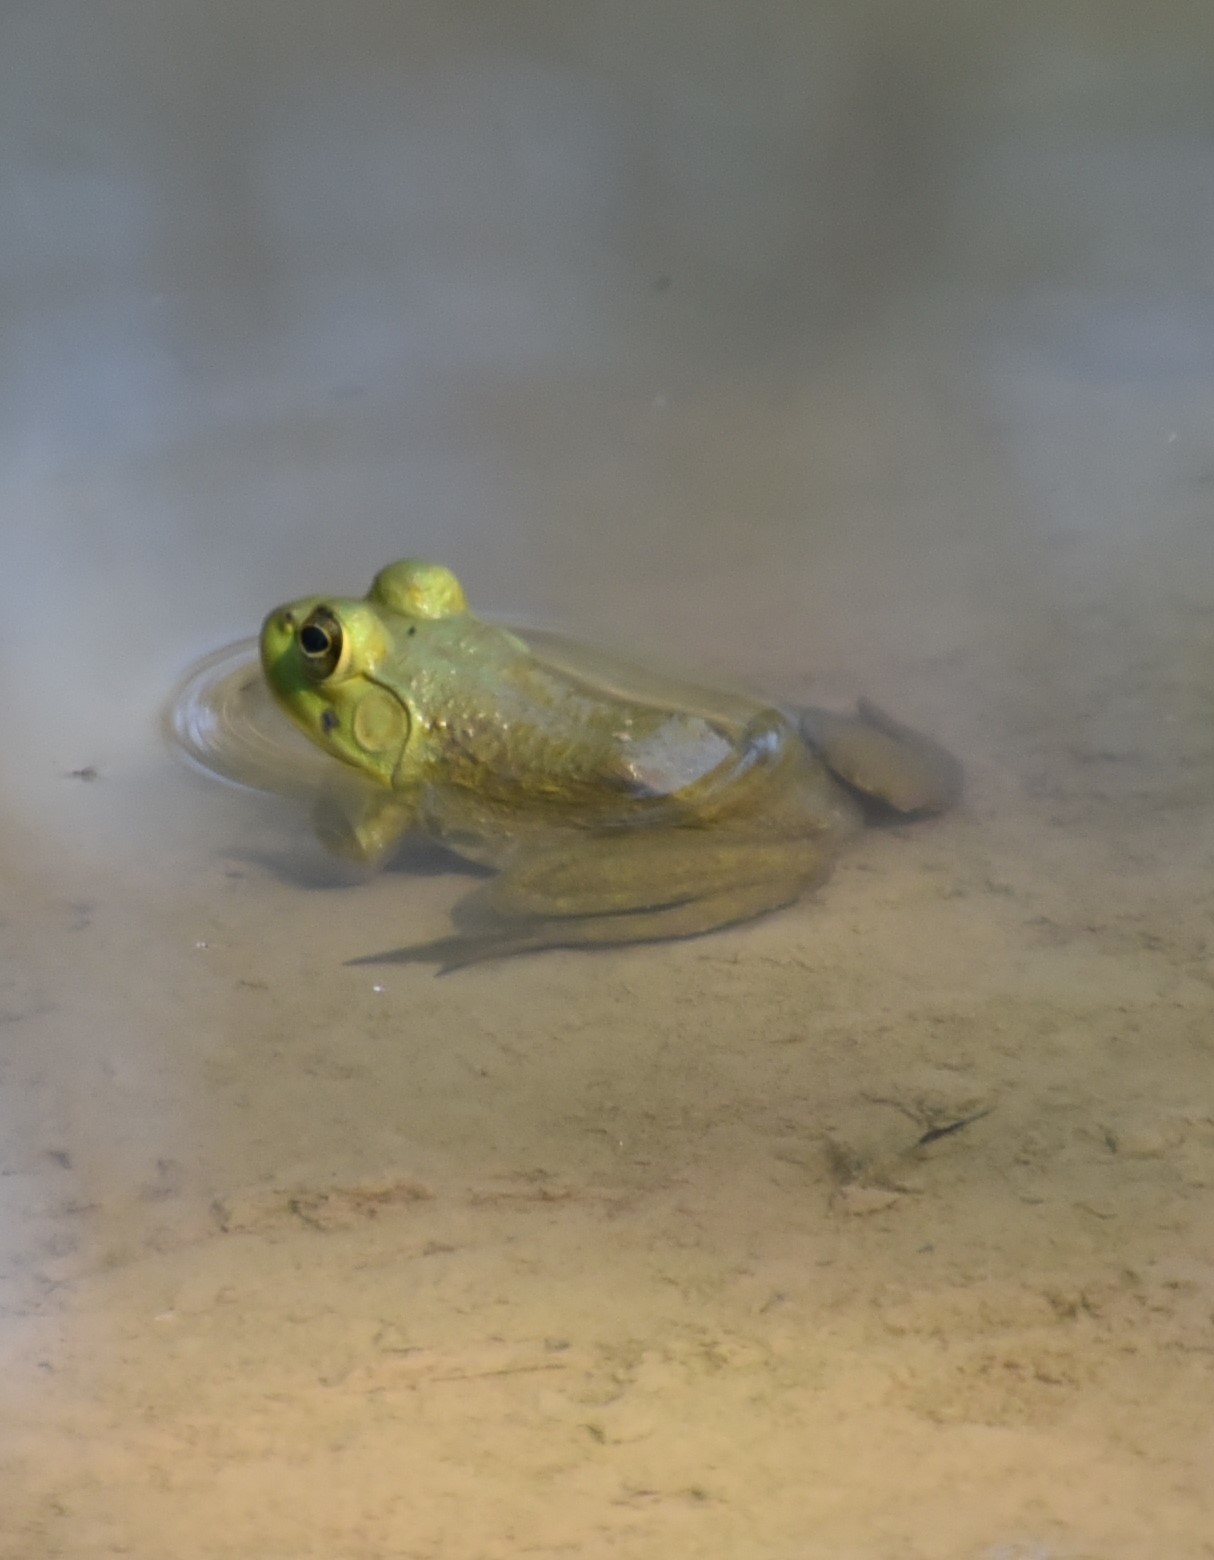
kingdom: Animalia
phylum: Chordata
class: Amphibia
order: Anura
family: Ranidae
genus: Lithobates
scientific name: Lithobates catesbeianus
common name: American bullfrog
